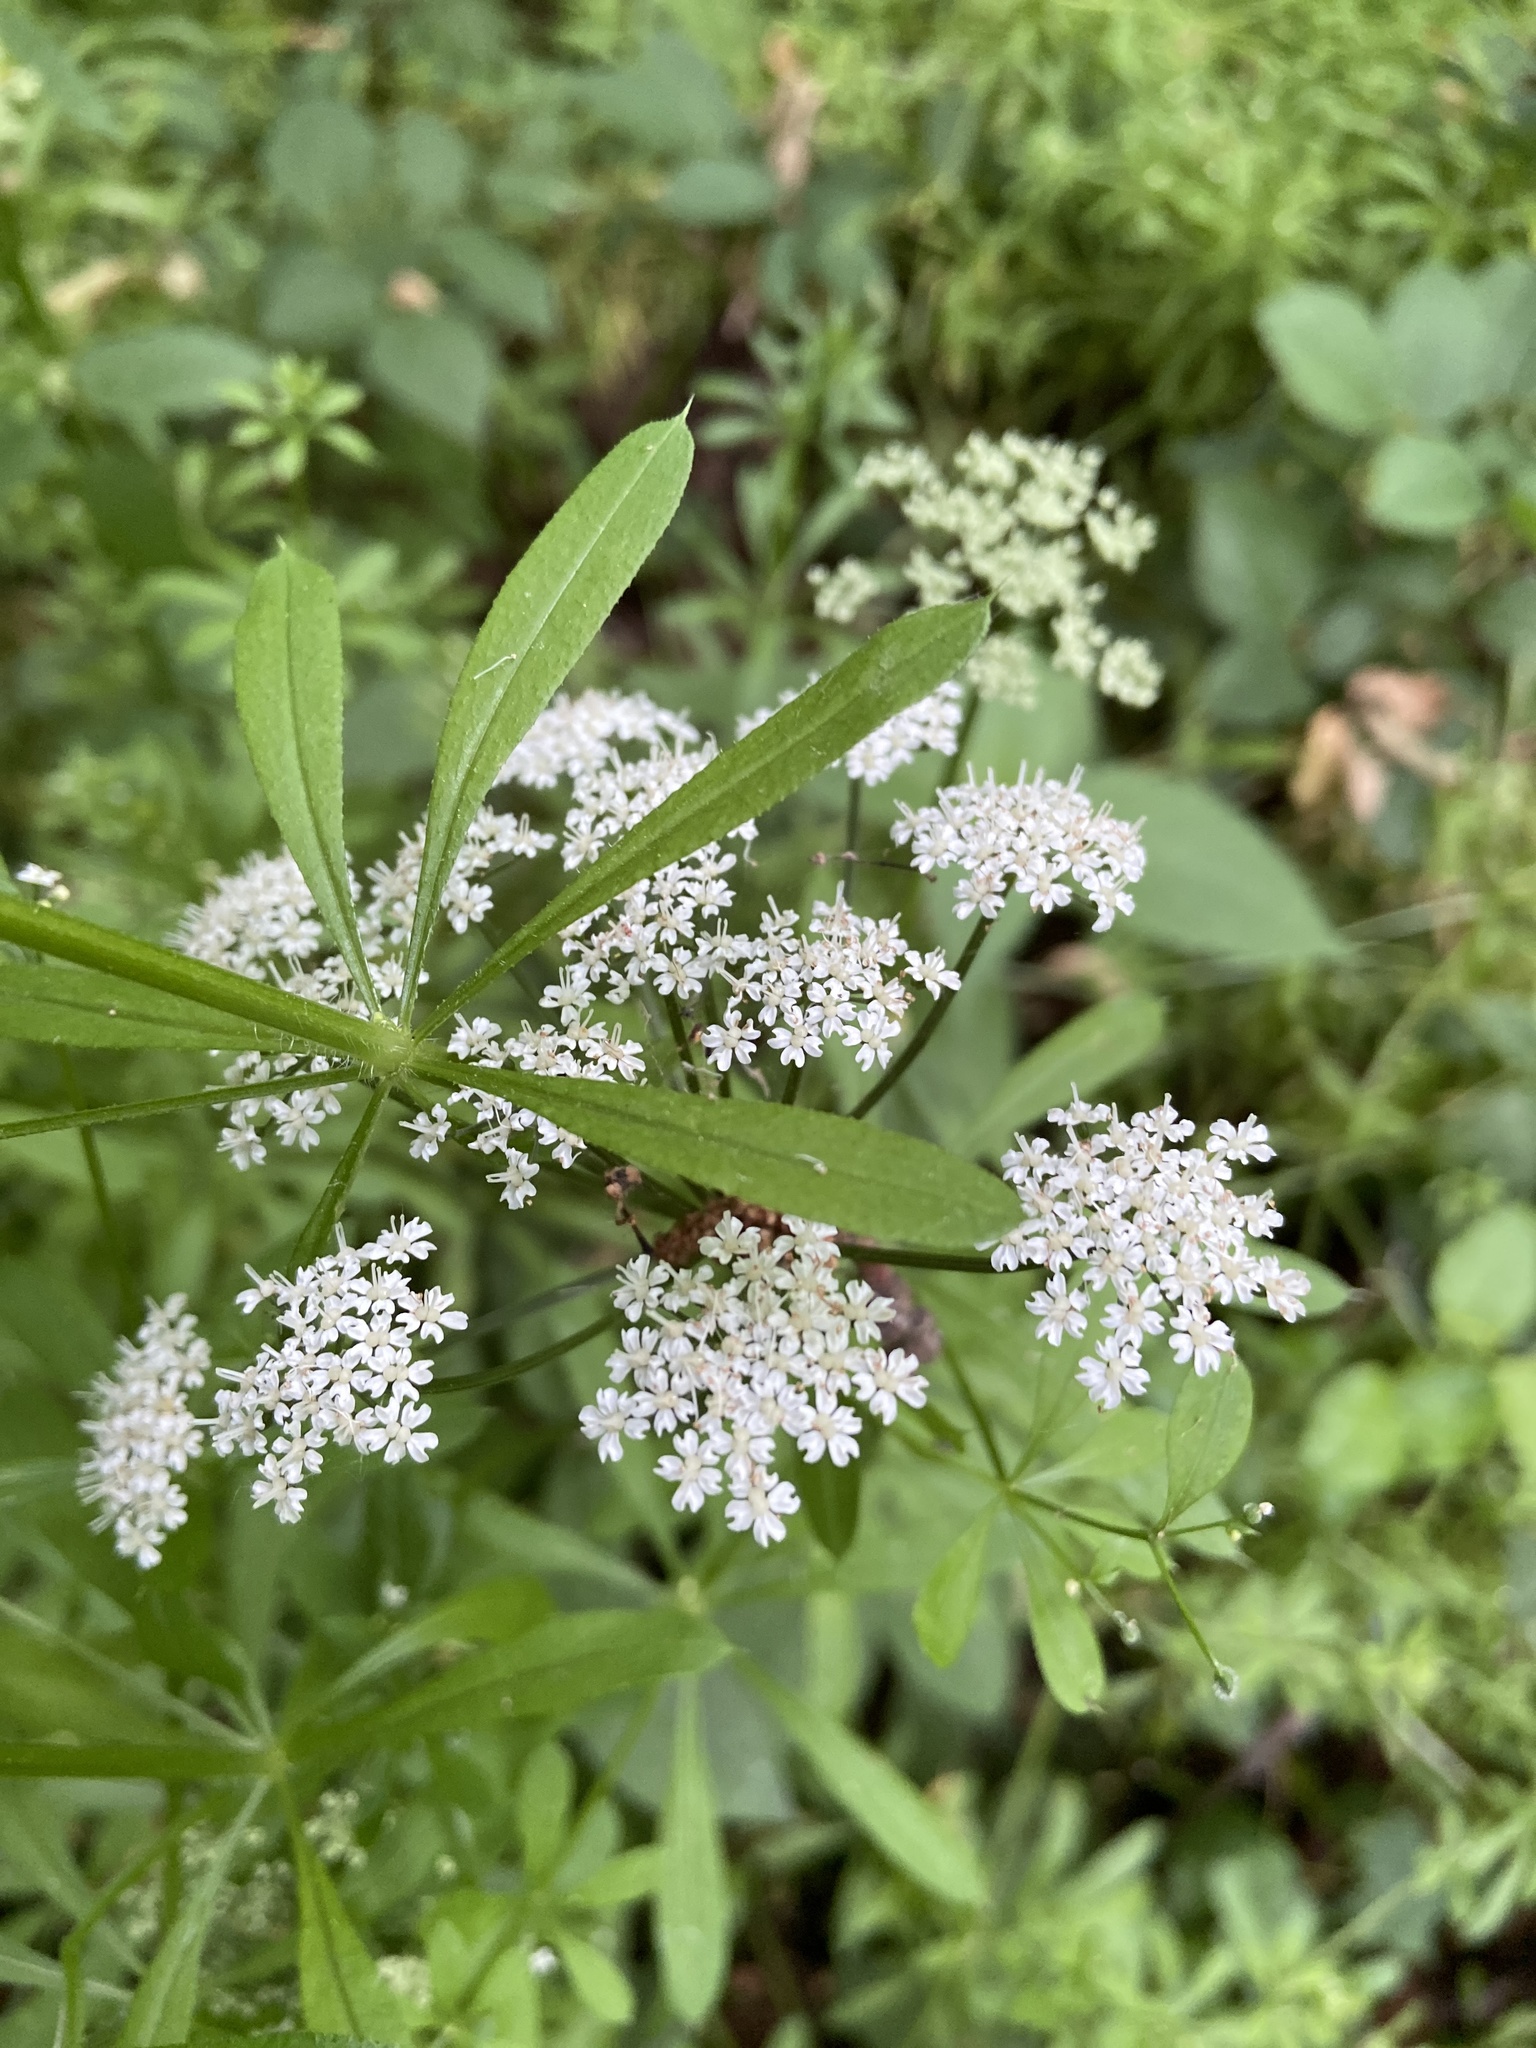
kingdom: Plantae
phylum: Tracheophyta
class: Magnoliopsida
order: Gentianales
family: Rubiaceae
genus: Galium
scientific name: Galium odoratum
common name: Sweet woodruff
